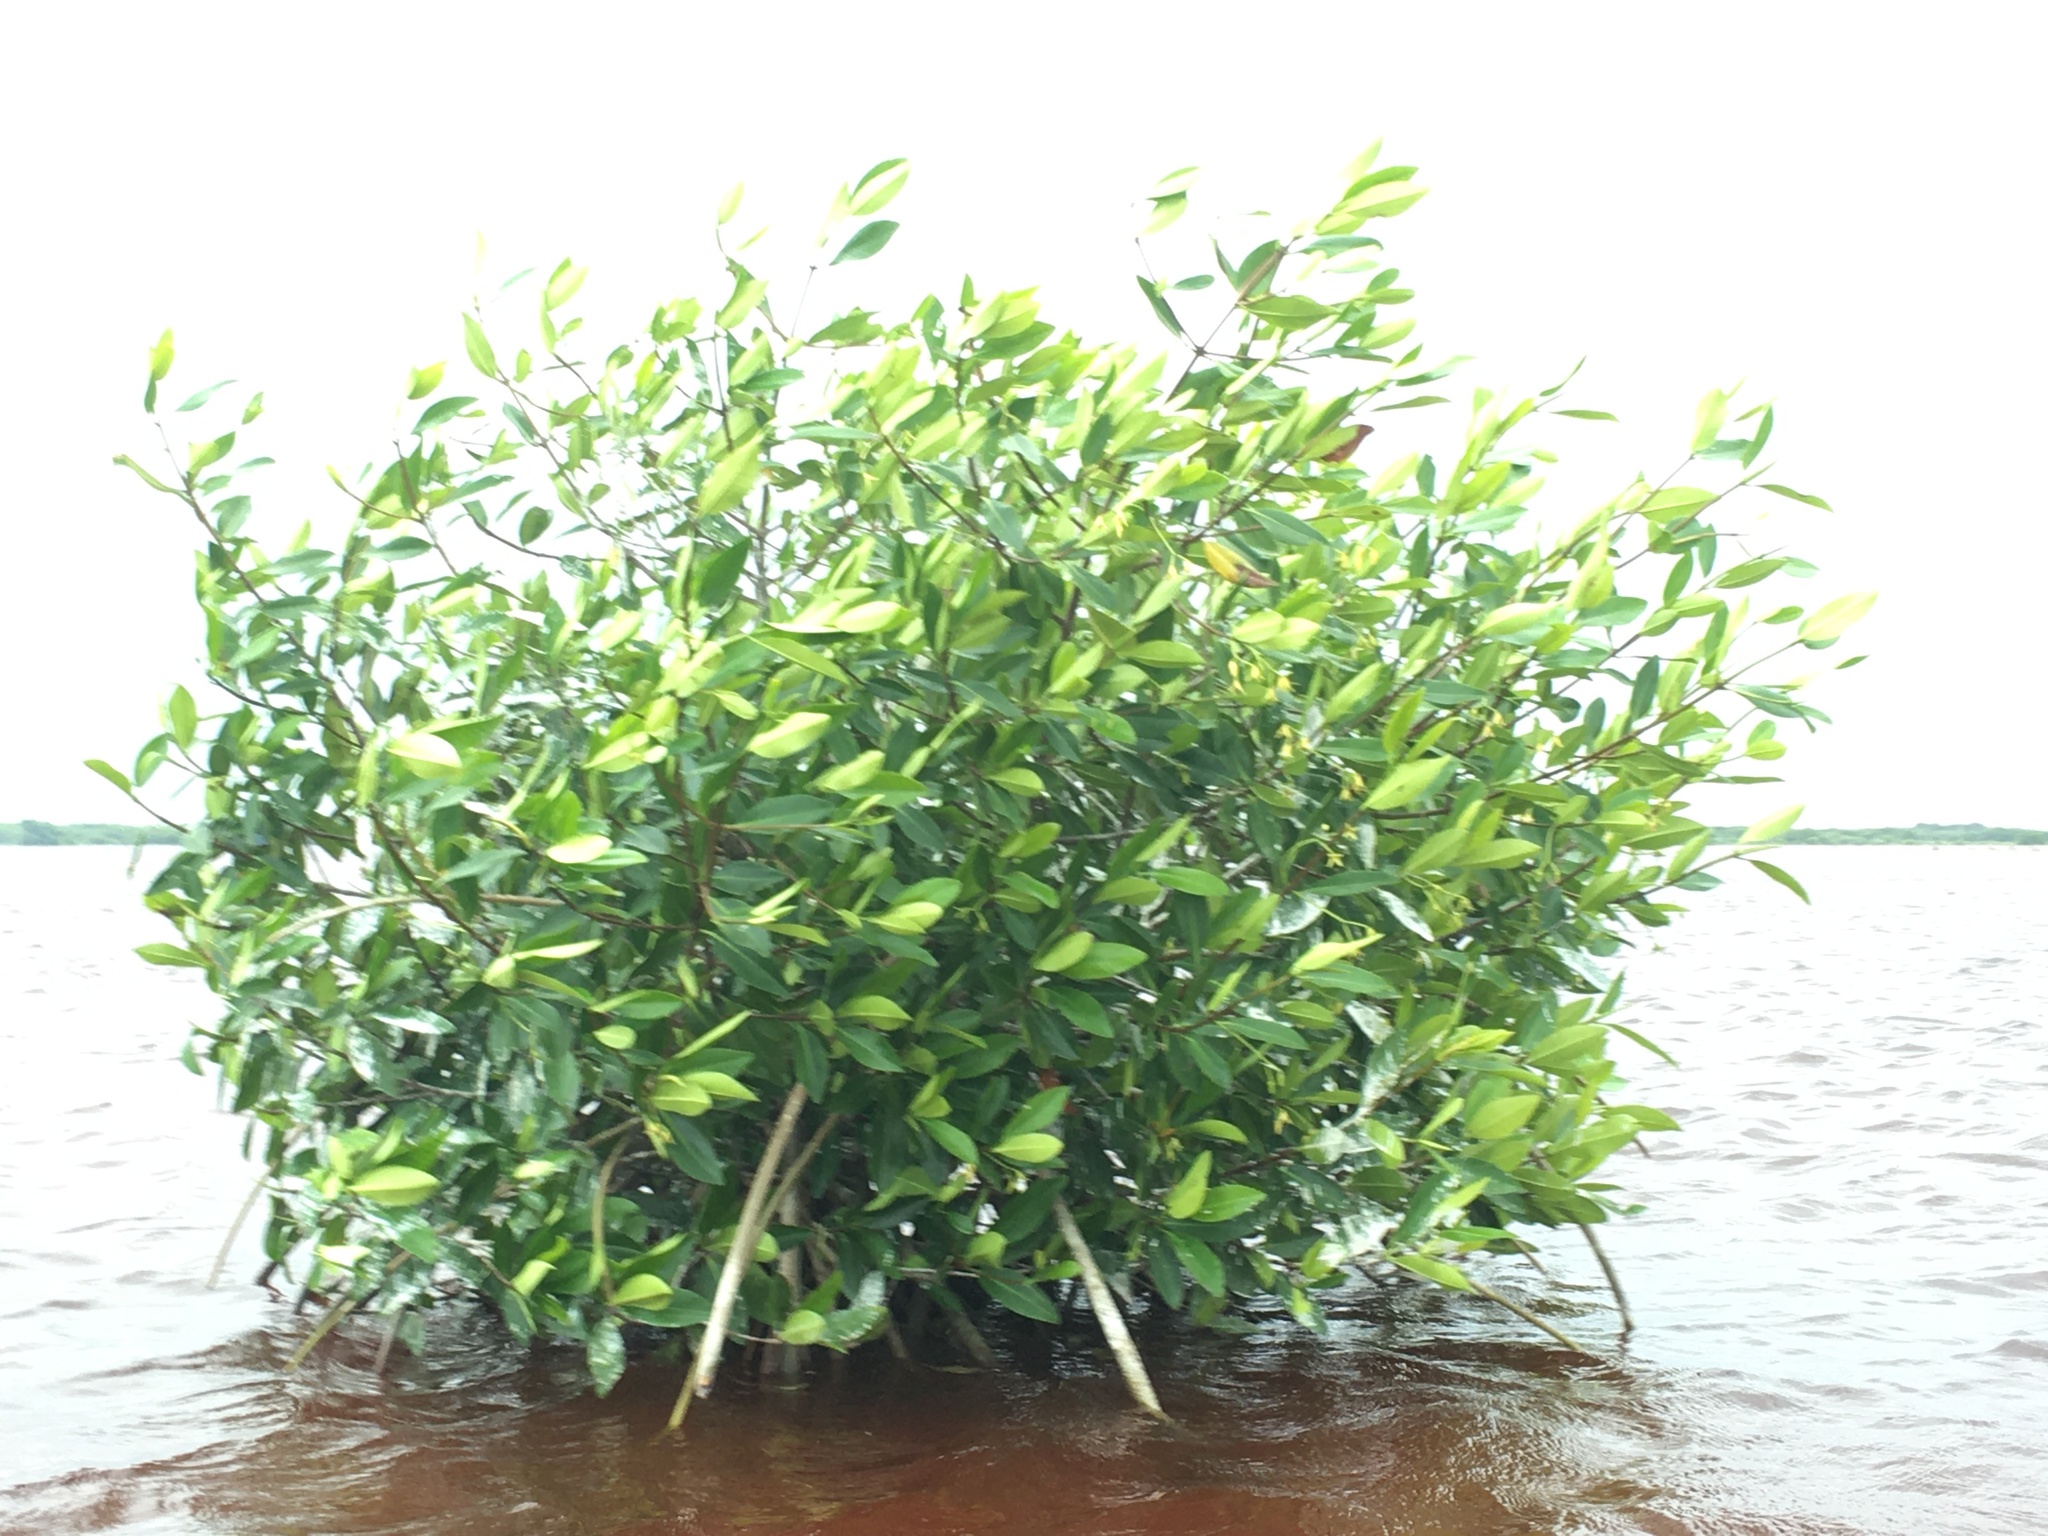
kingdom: Plantae
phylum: Tracheophyta
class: Magnoliopsida
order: Malpighiales
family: Rhizophoraceae
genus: Rhizophora
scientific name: Rhizophora mangle
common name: Red mangrove
